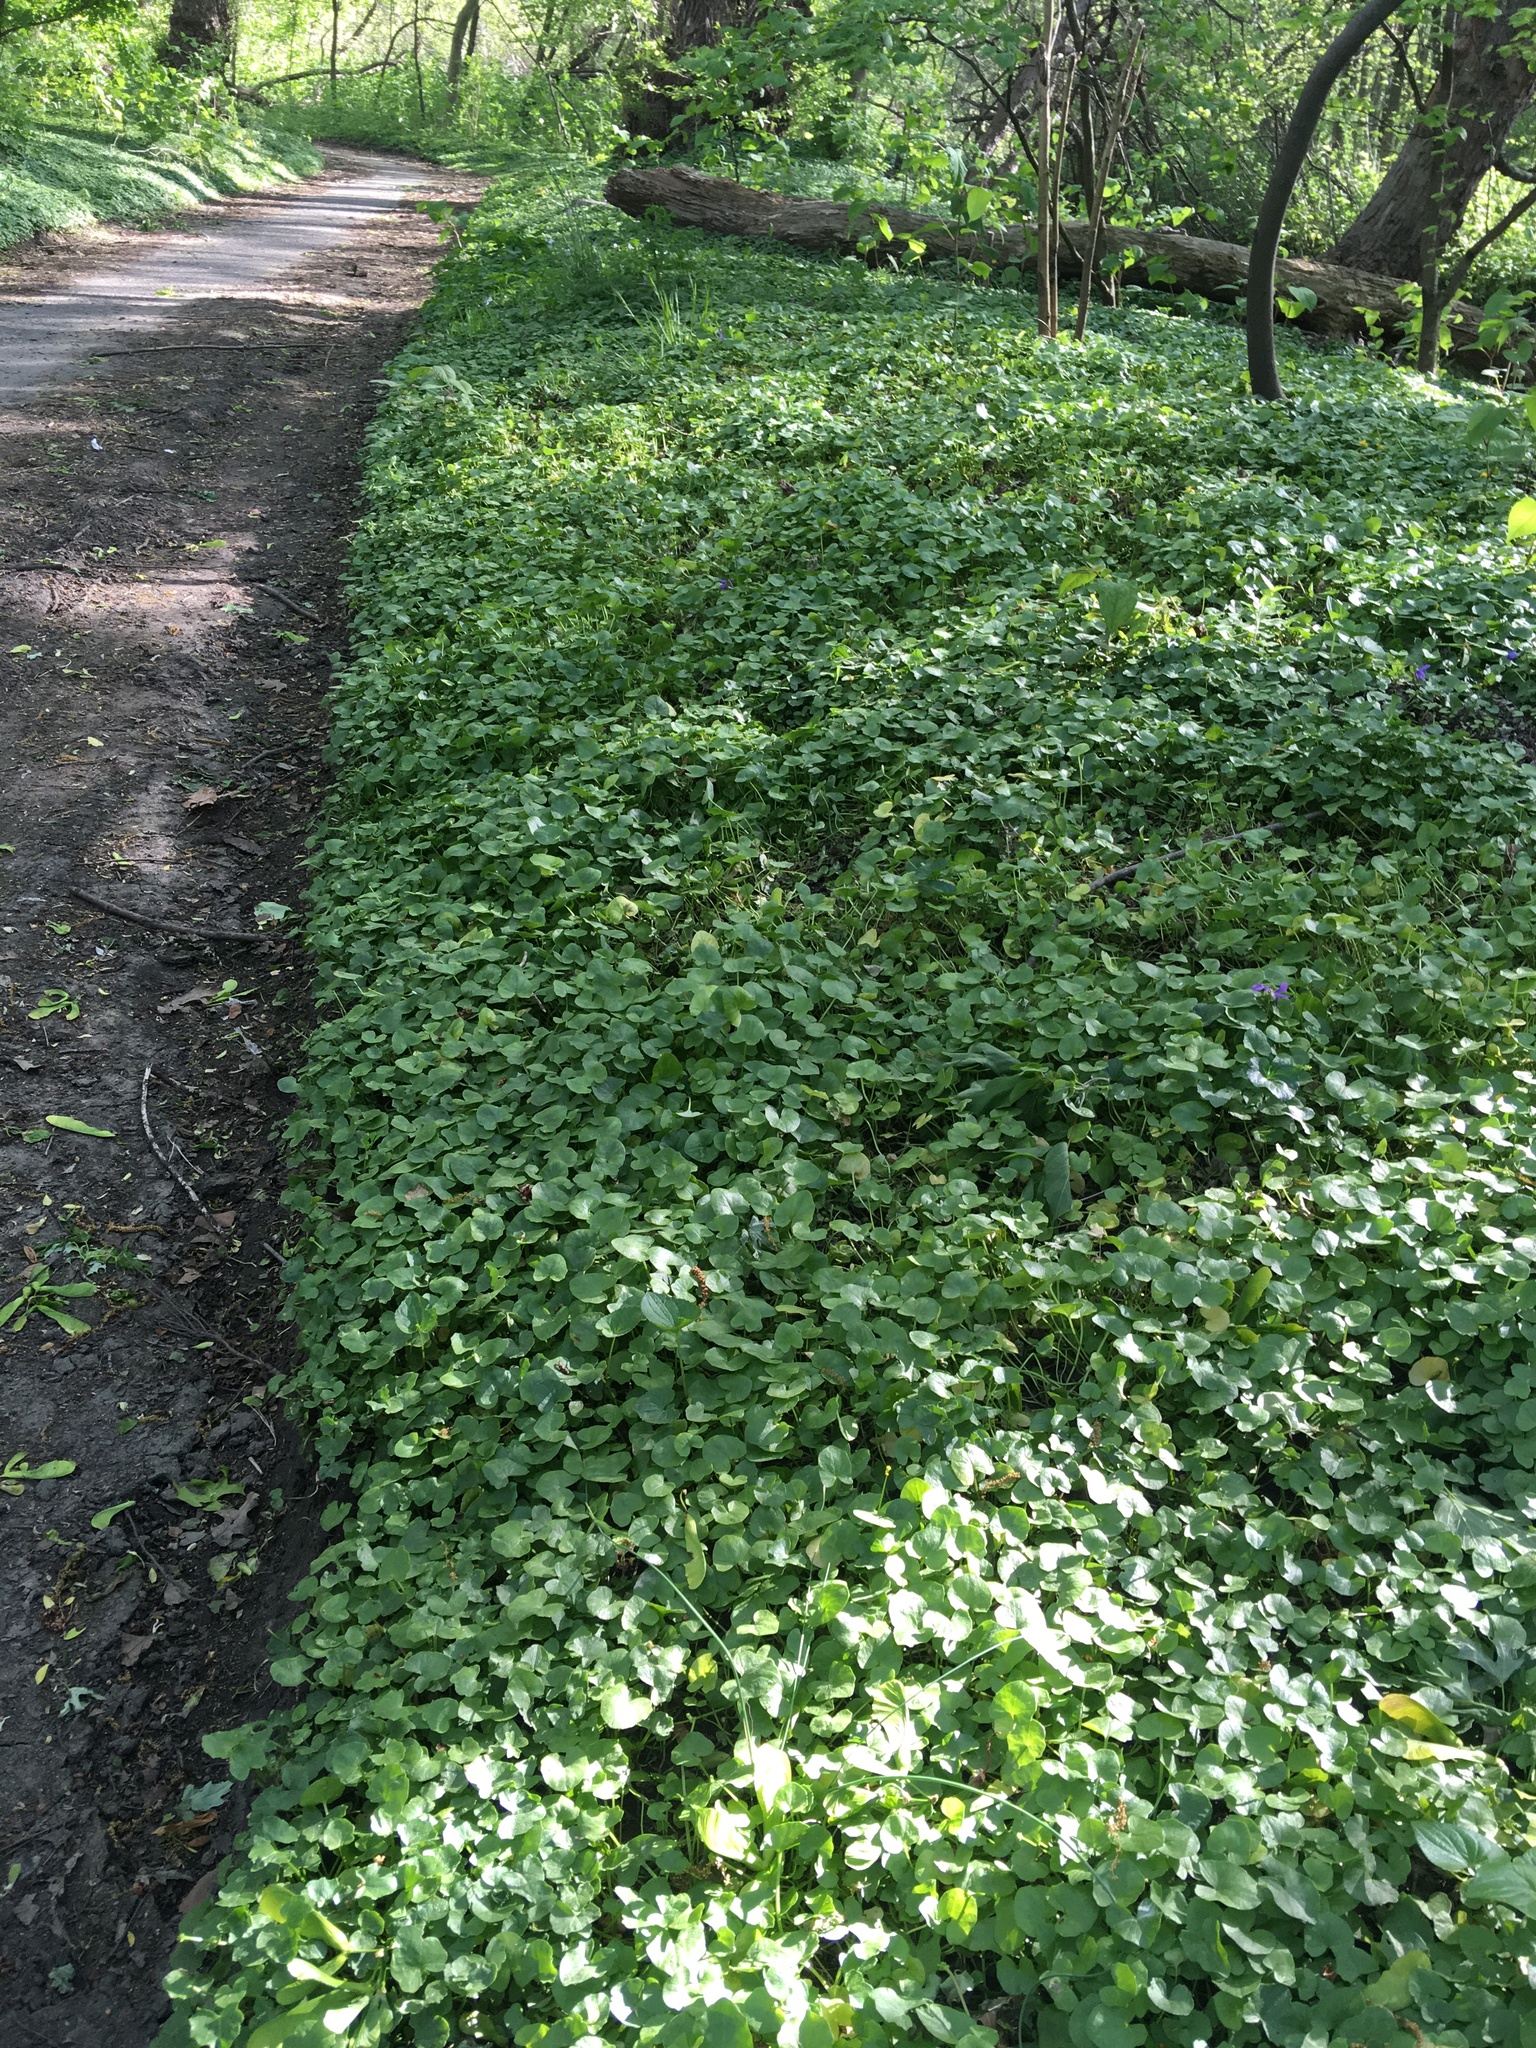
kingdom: Plantae
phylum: Tracheophyta
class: Magnoliopsida
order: Ranunculales
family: Ranunculaceae
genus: Ficaria
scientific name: Ficaria verna
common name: Lesser celandine
